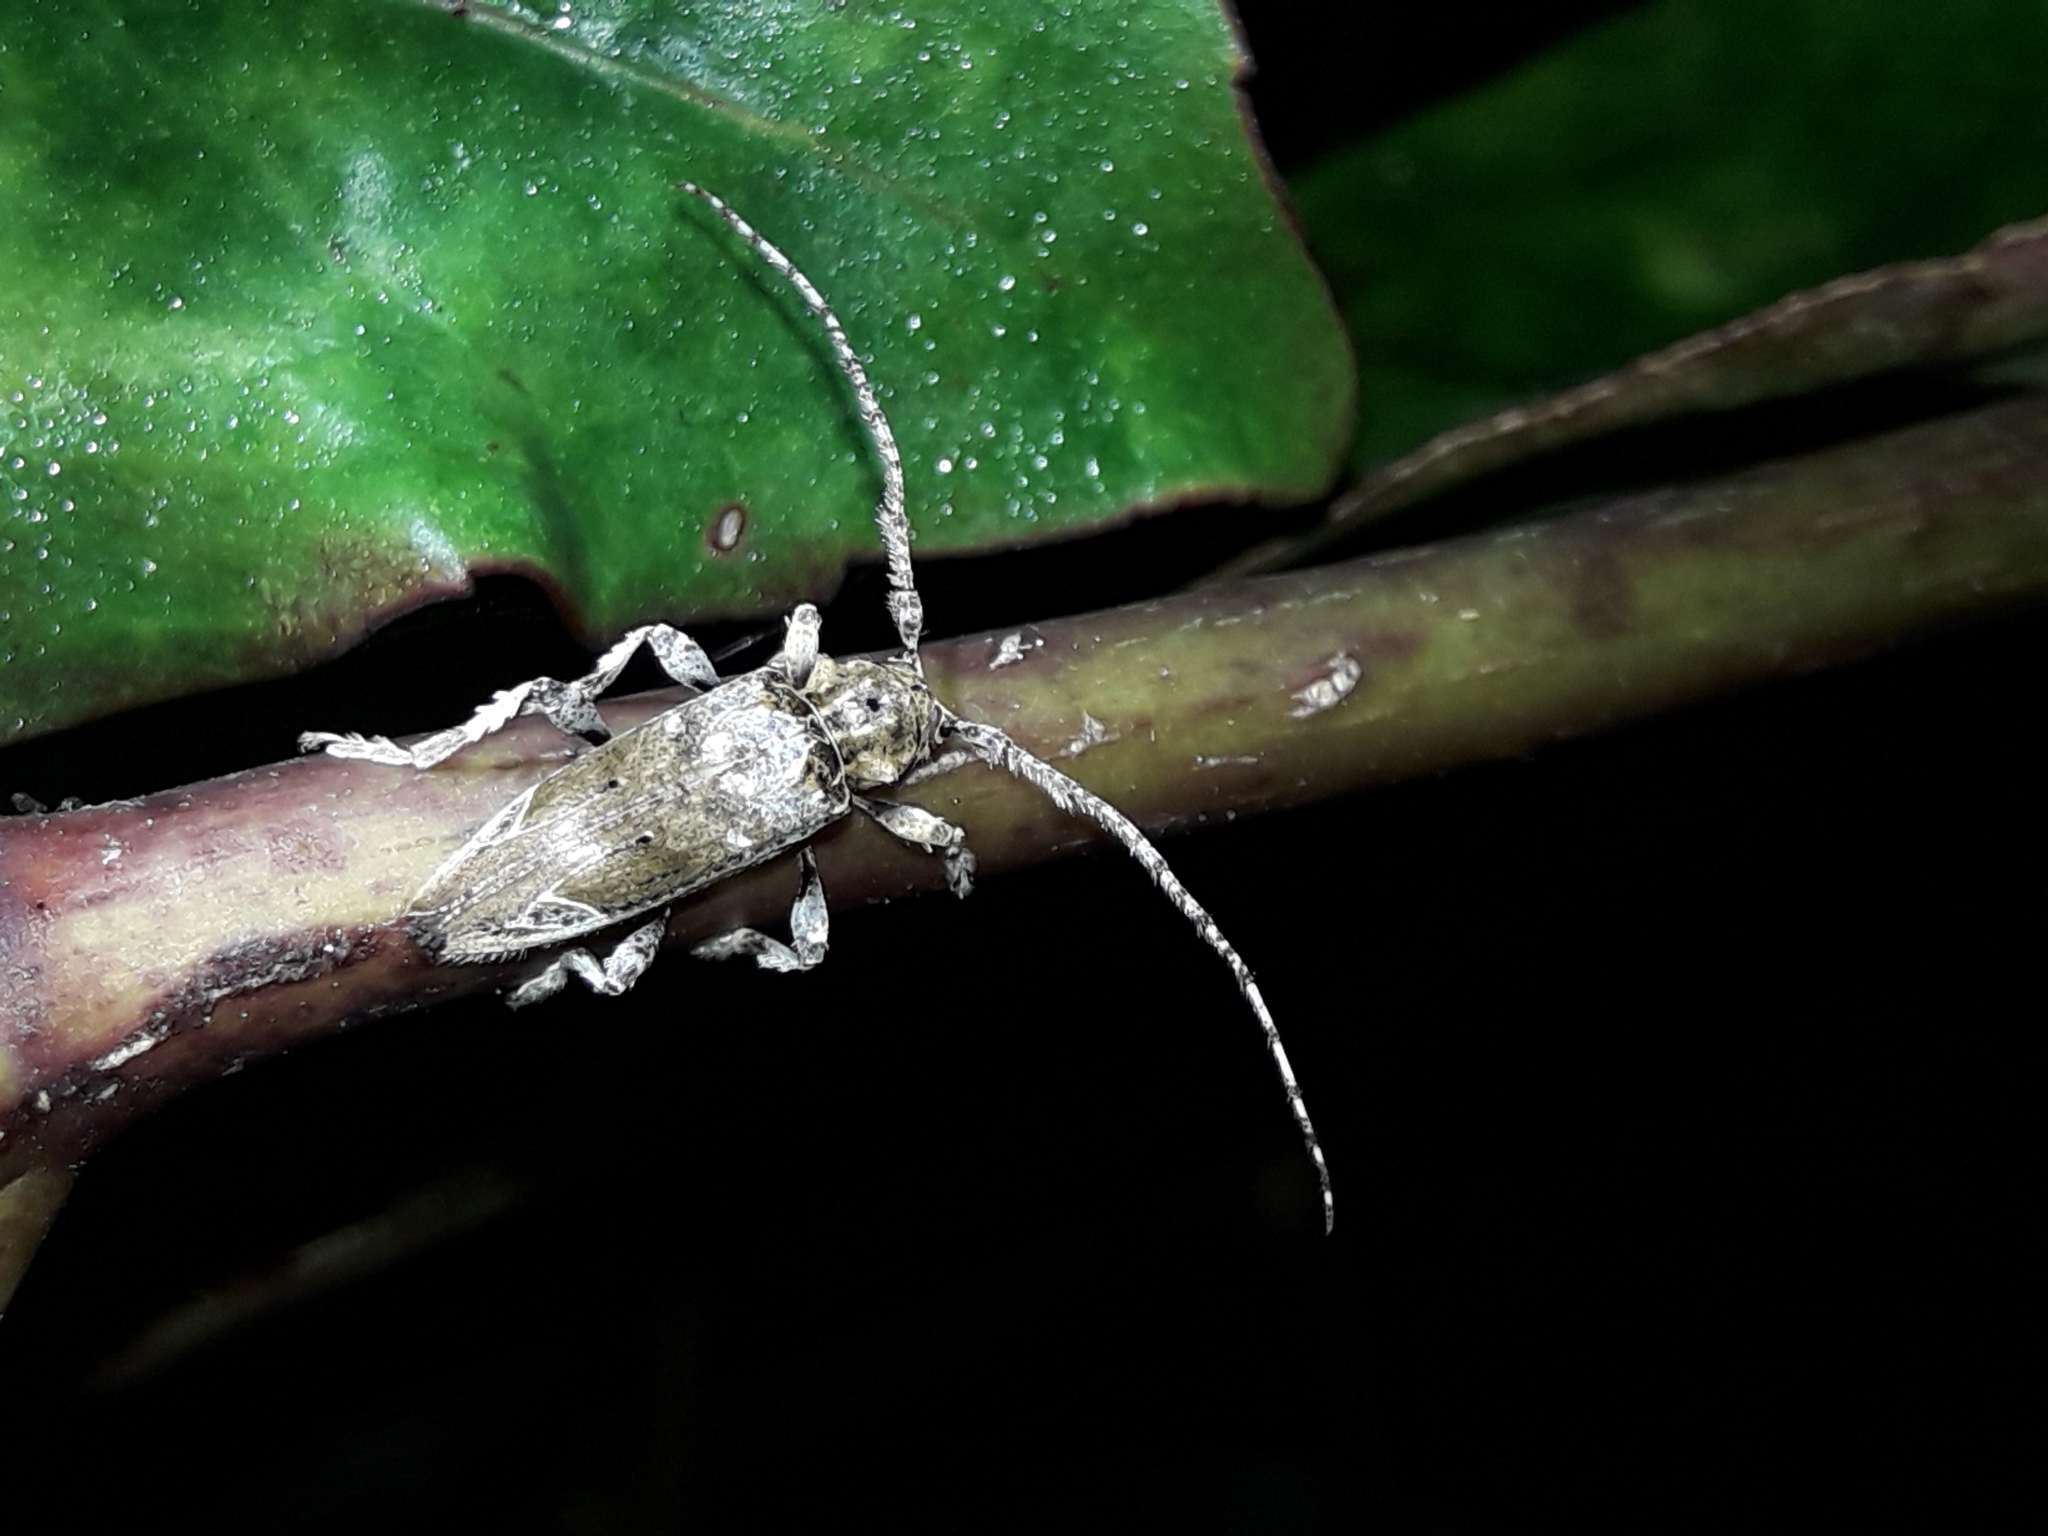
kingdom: Animalia
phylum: Arthropoda
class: Insecta
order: Coleoptera
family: Cerambycidae
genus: Tetrorea
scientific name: Tetrorea cilipes
